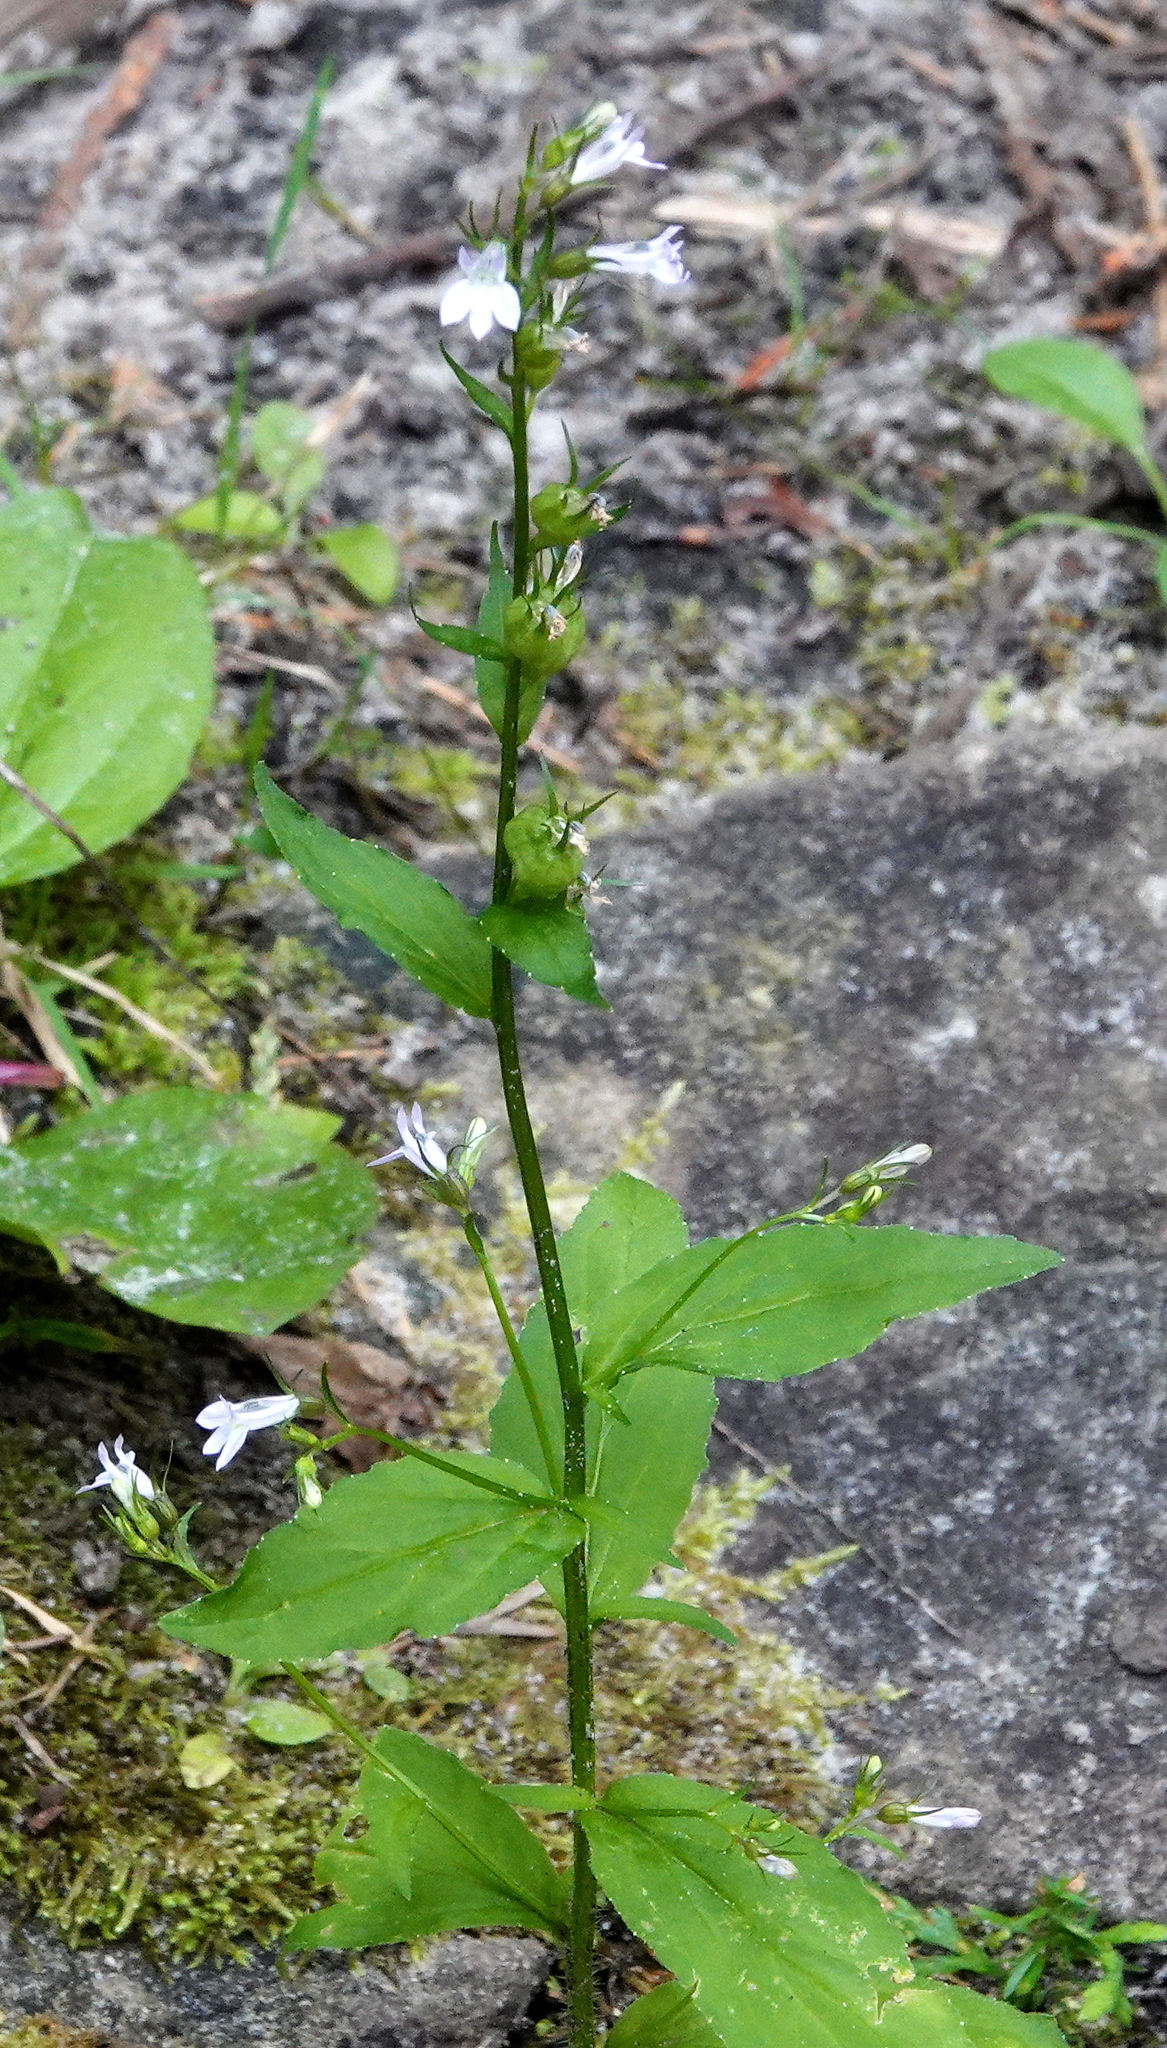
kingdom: Plantae
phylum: Tracheophyta
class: Magnoliopsida
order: Asterales
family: Campanulaceae
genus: Lobelia
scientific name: Lobelia inflata
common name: Indian tobacco
